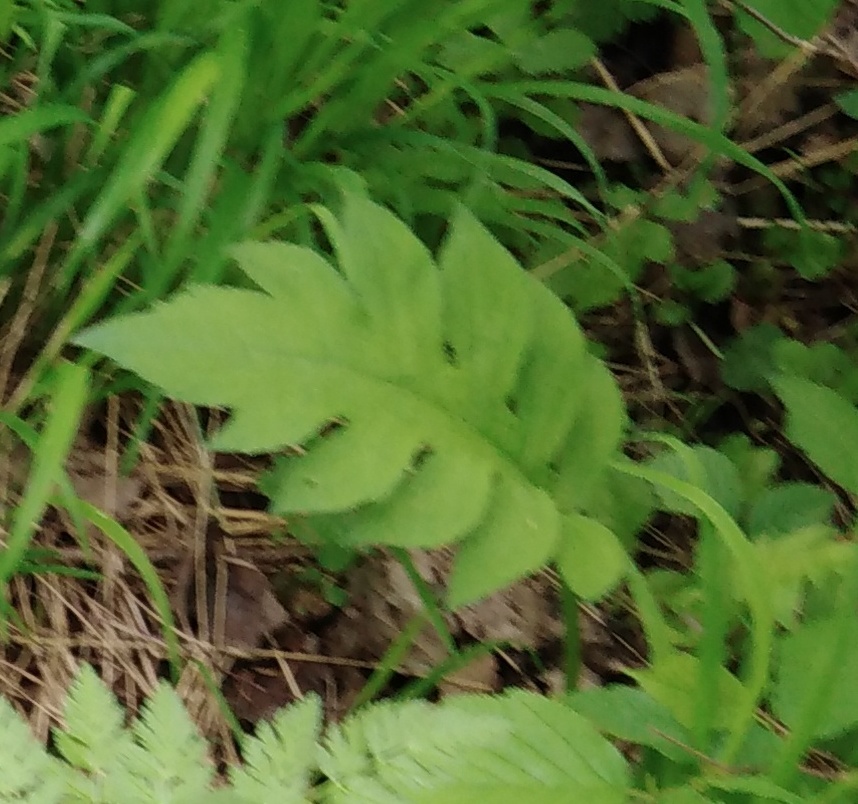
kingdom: Plantae
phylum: Tracheophyta
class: Magnoliopsida
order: Asterales
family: Asteraceae
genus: Cirsium
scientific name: Cirsium oleraceum
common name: Cabbage thistle
